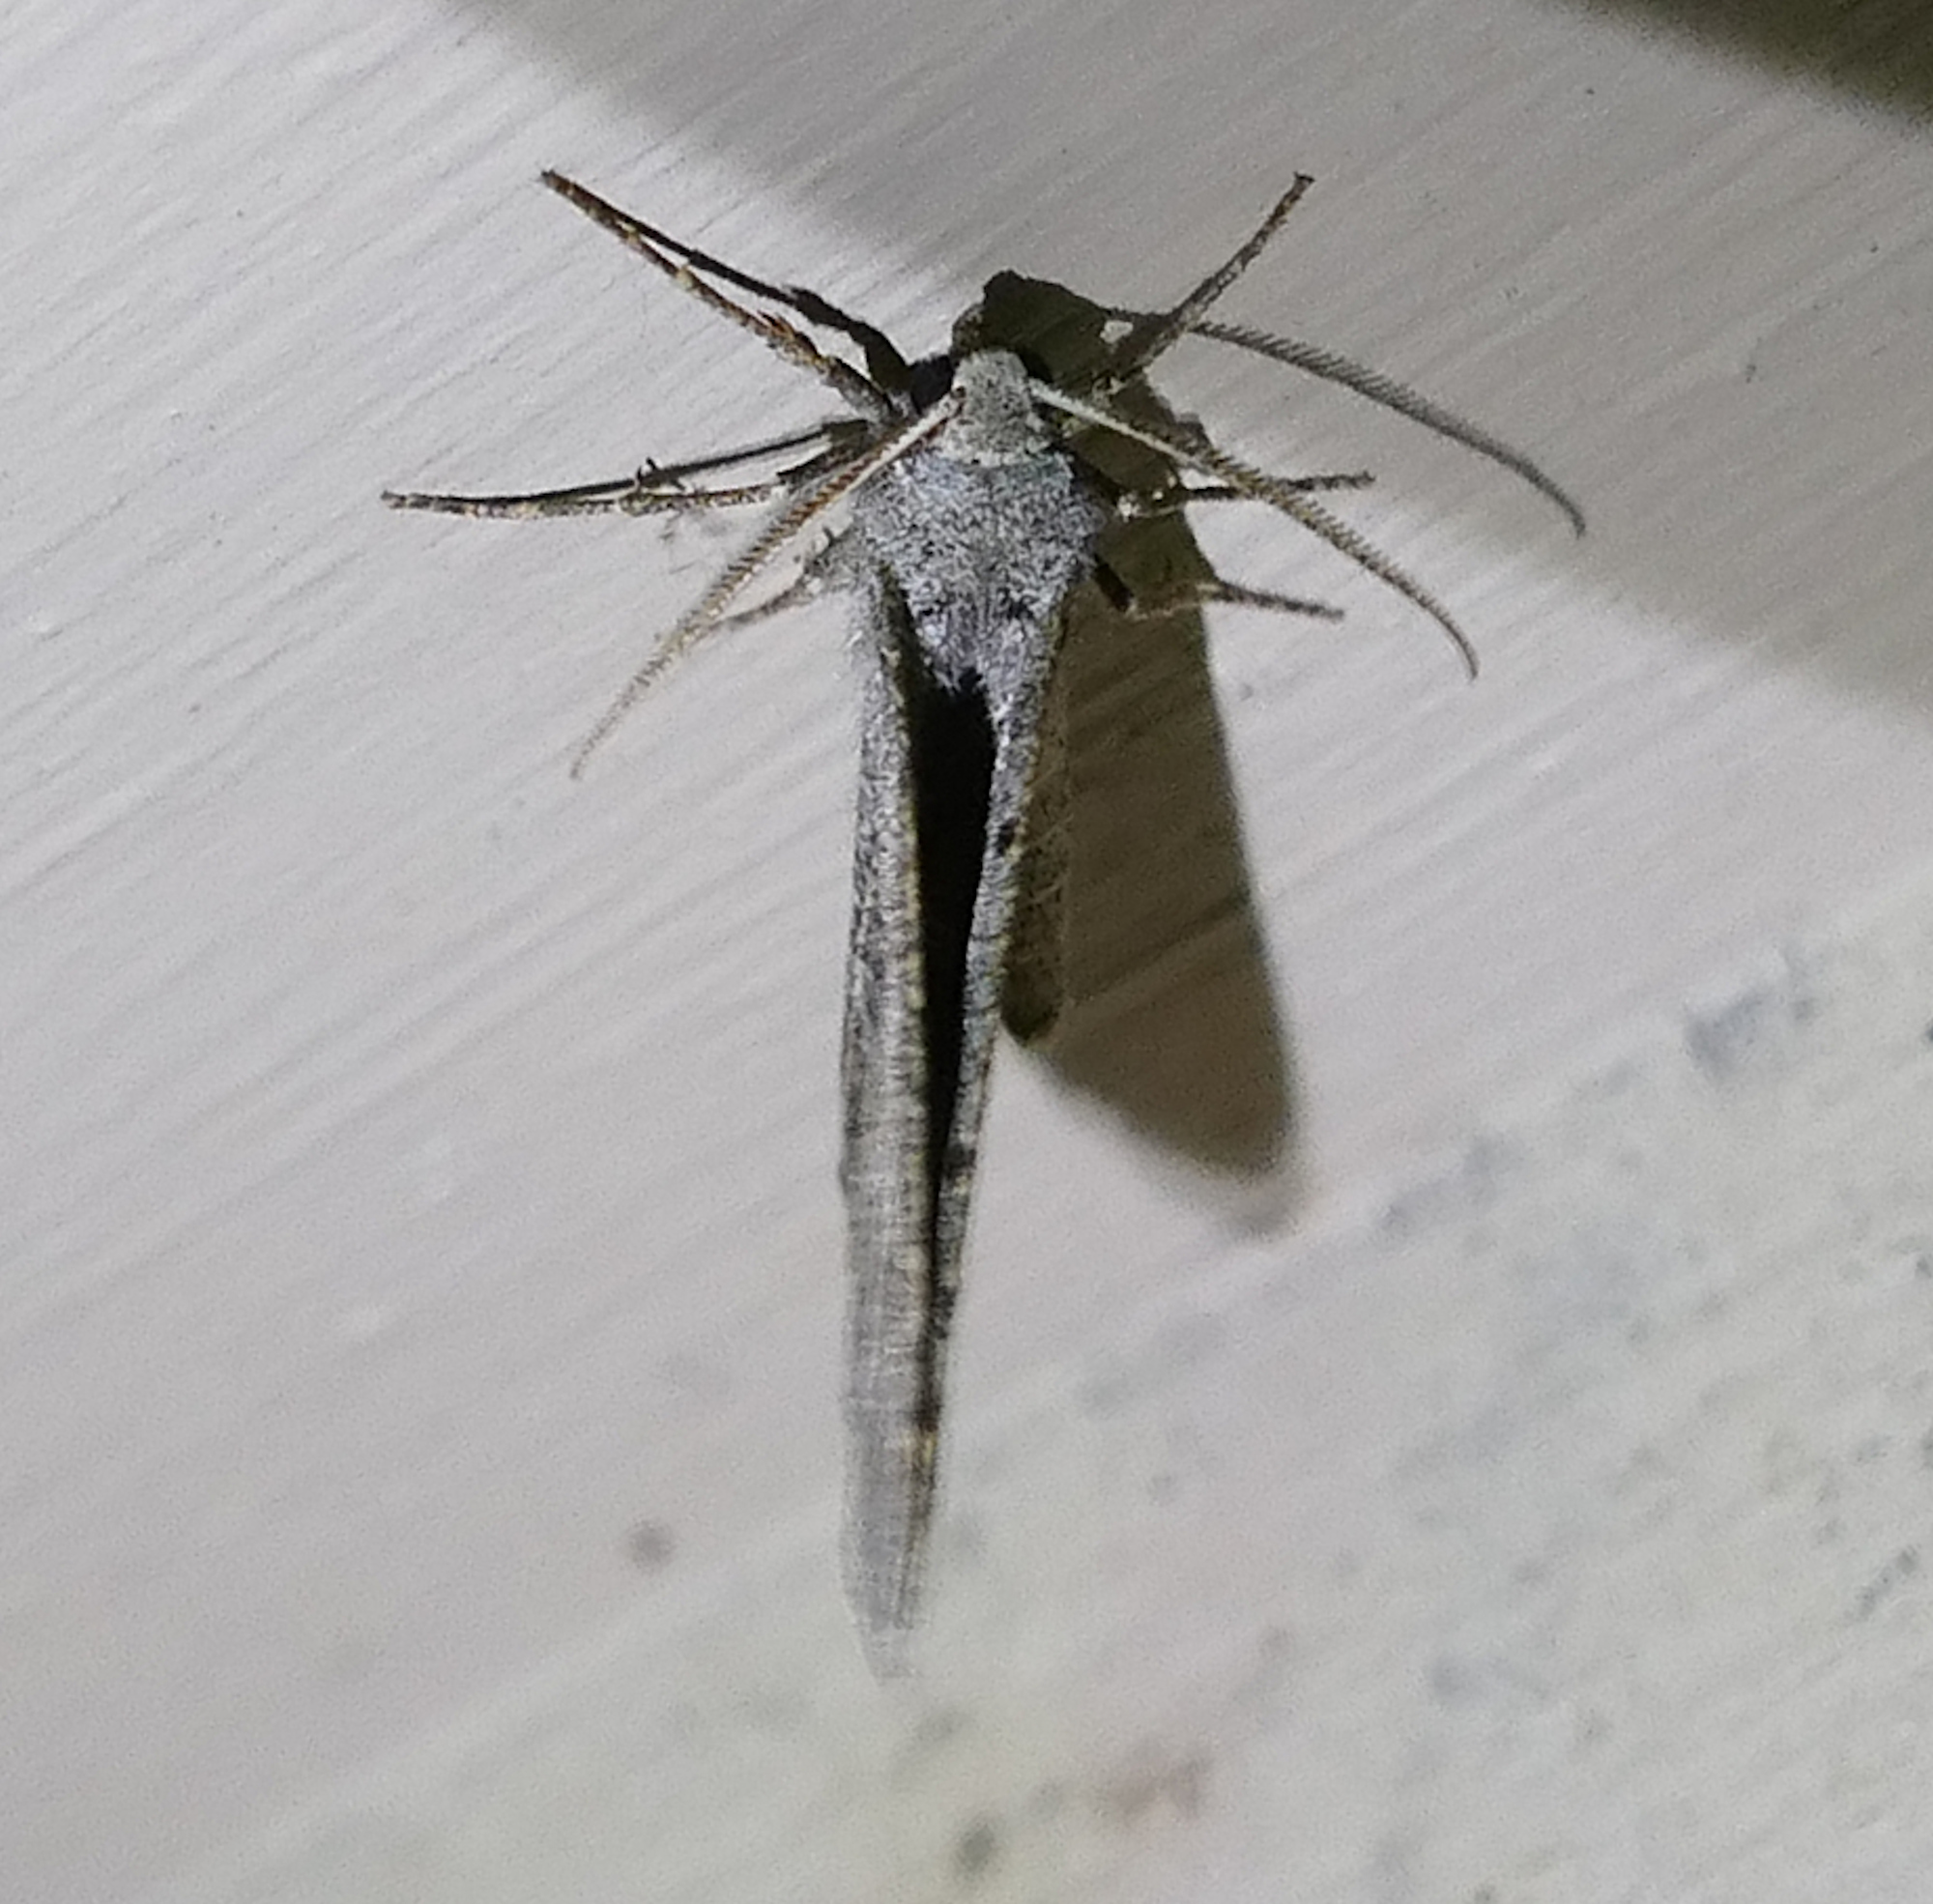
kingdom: Animalia
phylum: Arthropoda
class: Insecta
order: Lepidoptera
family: Geometridae
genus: Isturgia
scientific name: Isturgia dislocaria
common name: Pale-viened enconista
